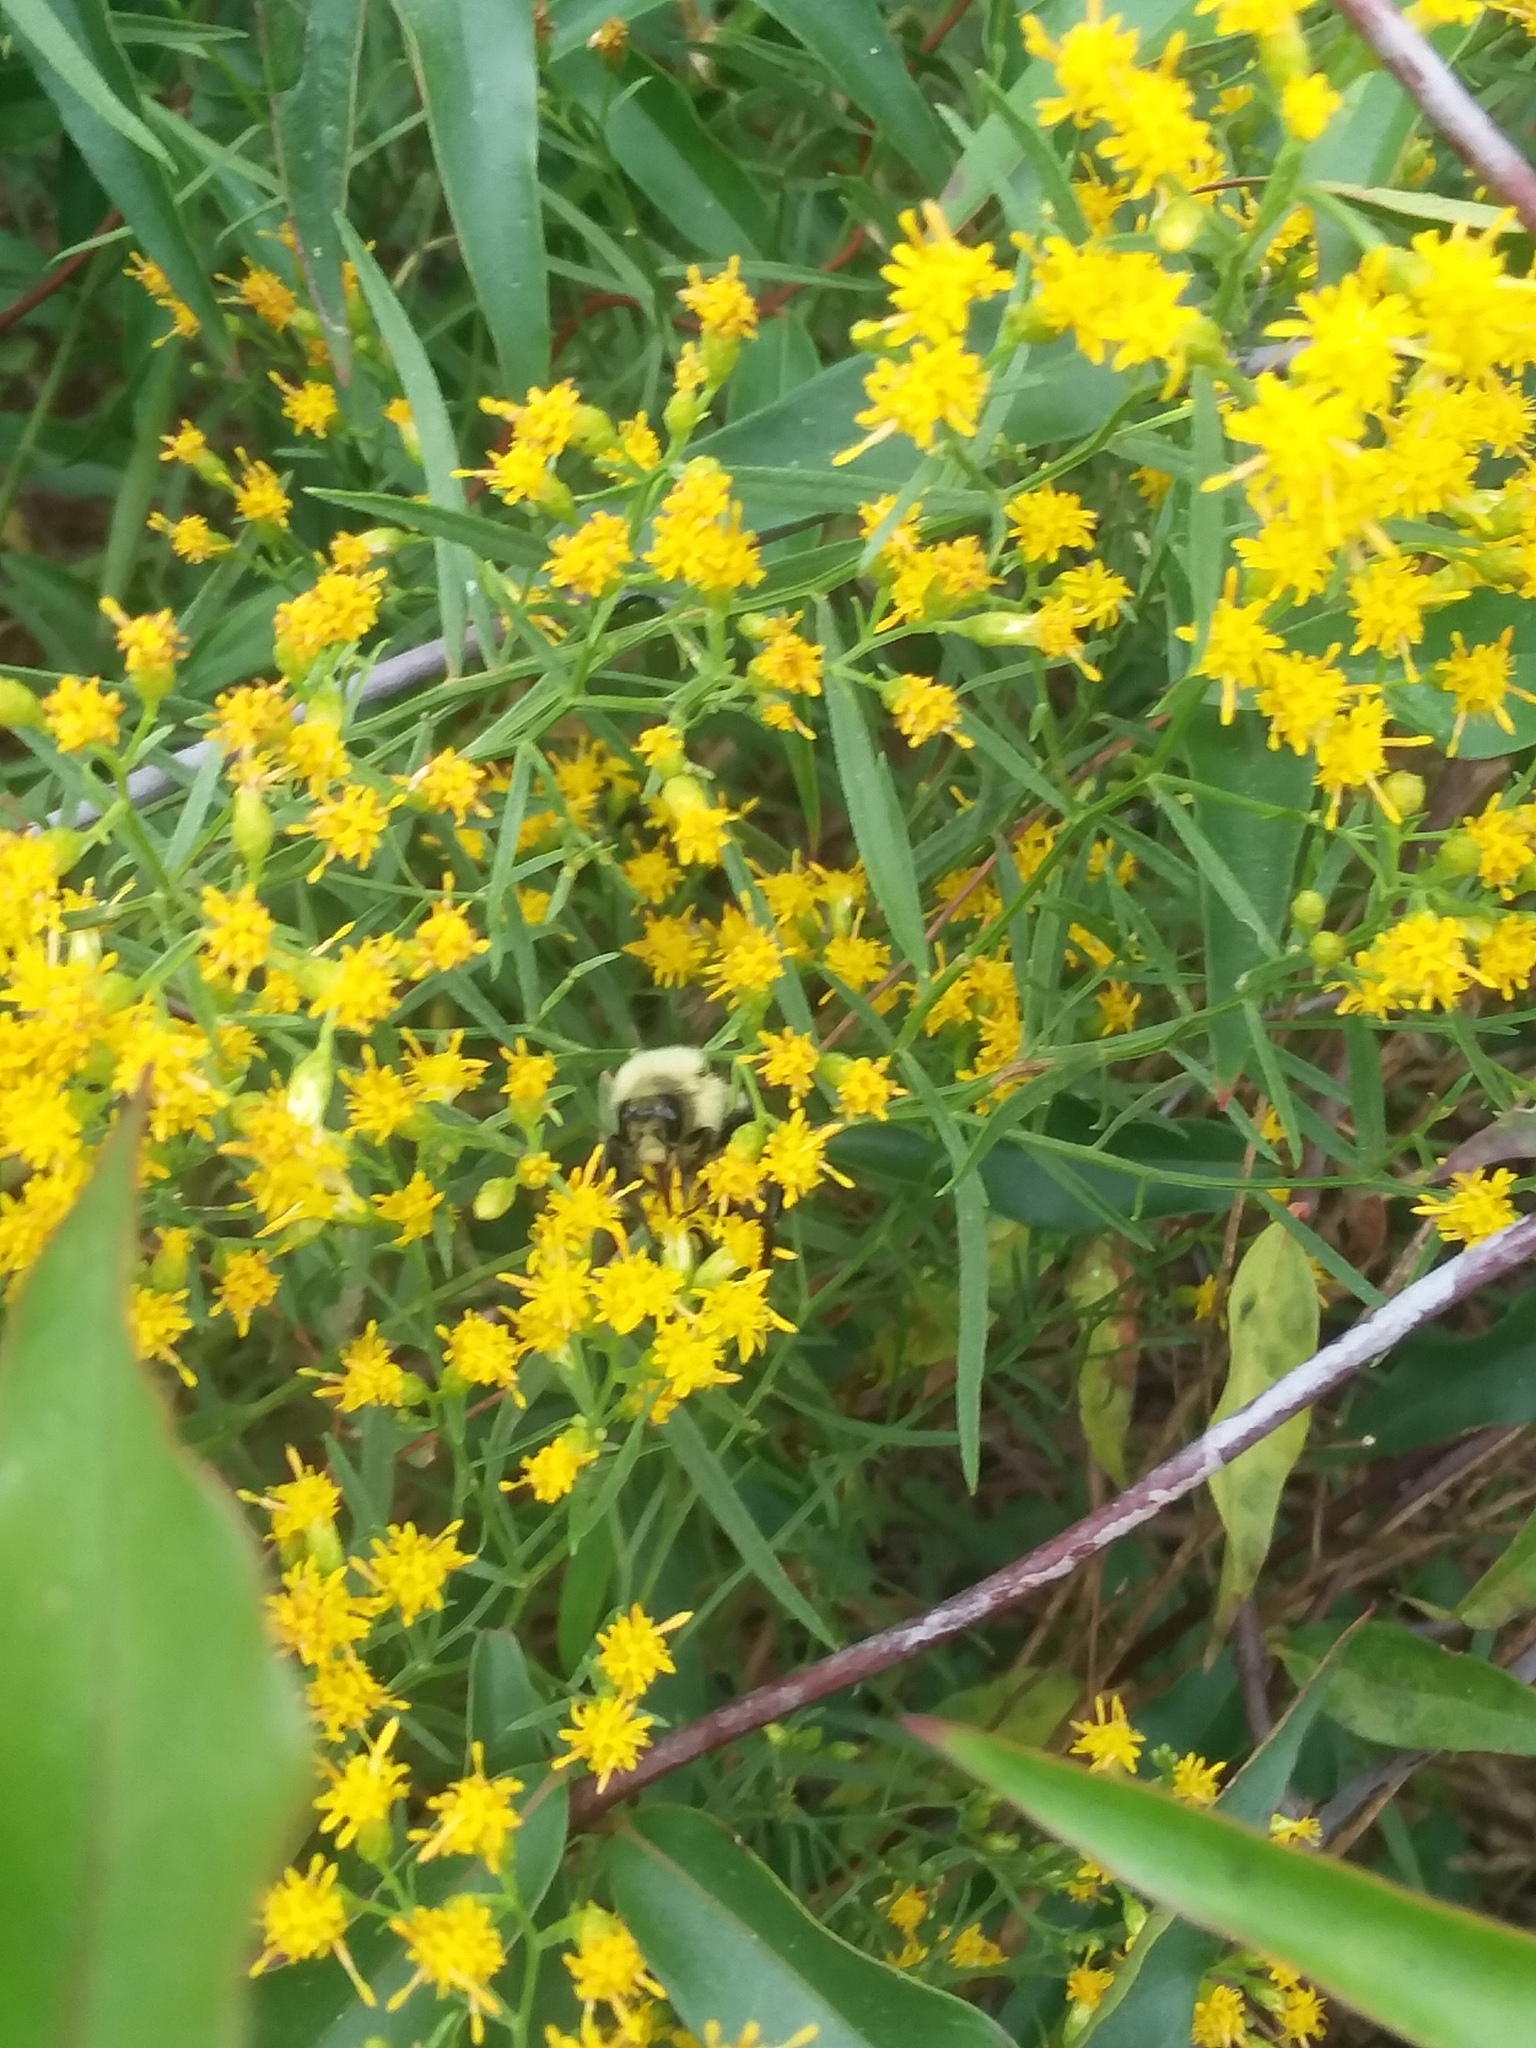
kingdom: Animalia
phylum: Arthropoda
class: Insecta
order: Hymenoptera
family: Apidae
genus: Bombus
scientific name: Bombus impatiens
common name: Common eastern bumble bee
